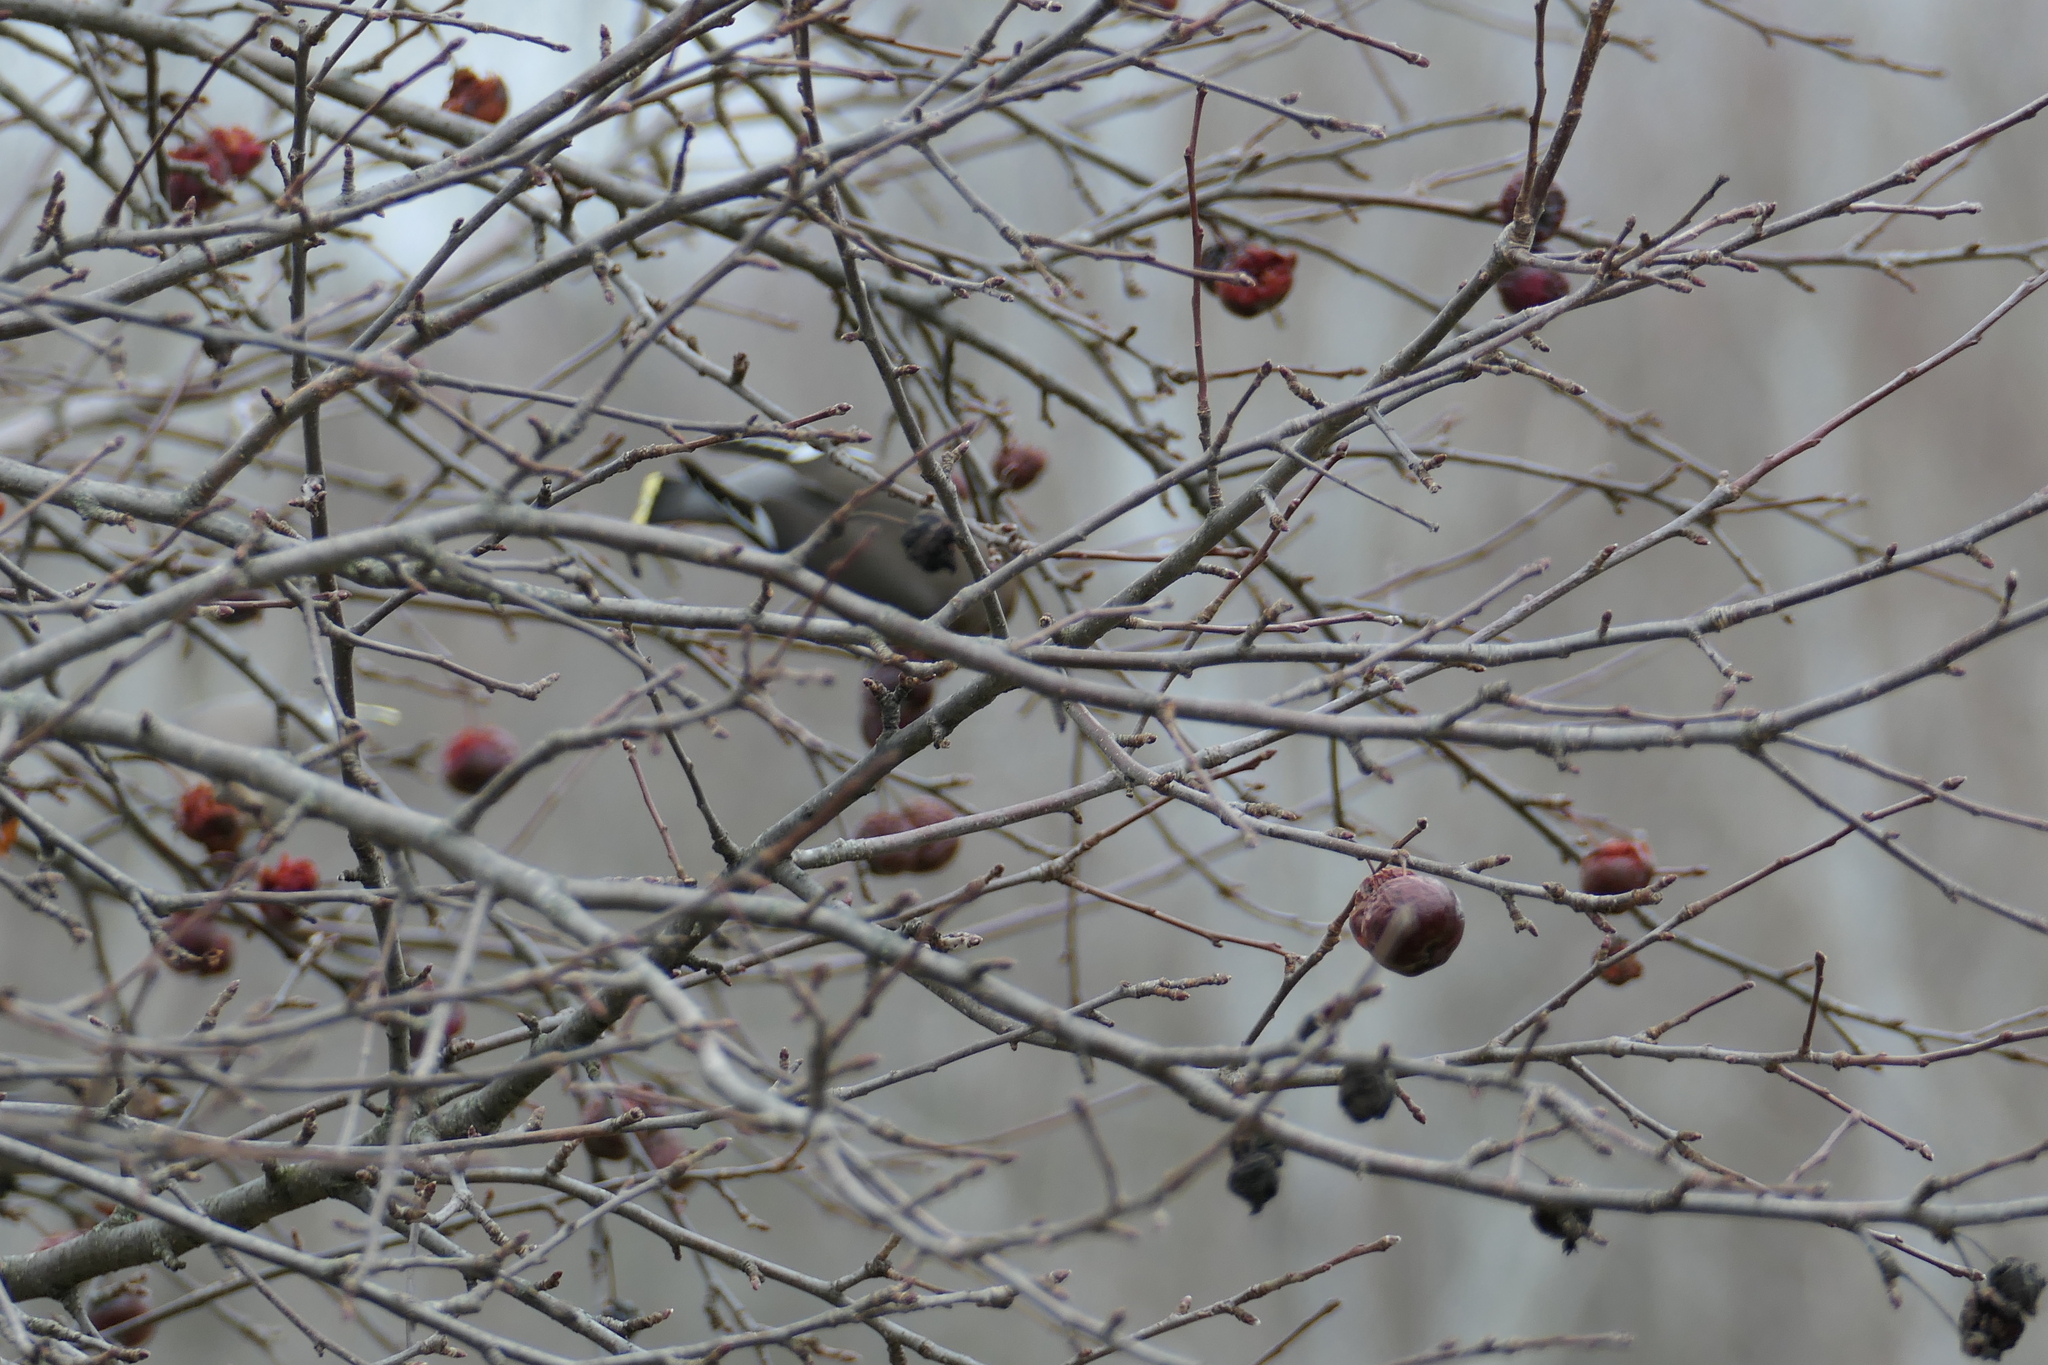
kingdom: Animalia
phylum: Chordata
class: Aves
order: Passeriformes
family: Bombycillidae
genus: Bombycilla
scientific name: Bombycilla garrulus
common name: Bohemian waxwing
